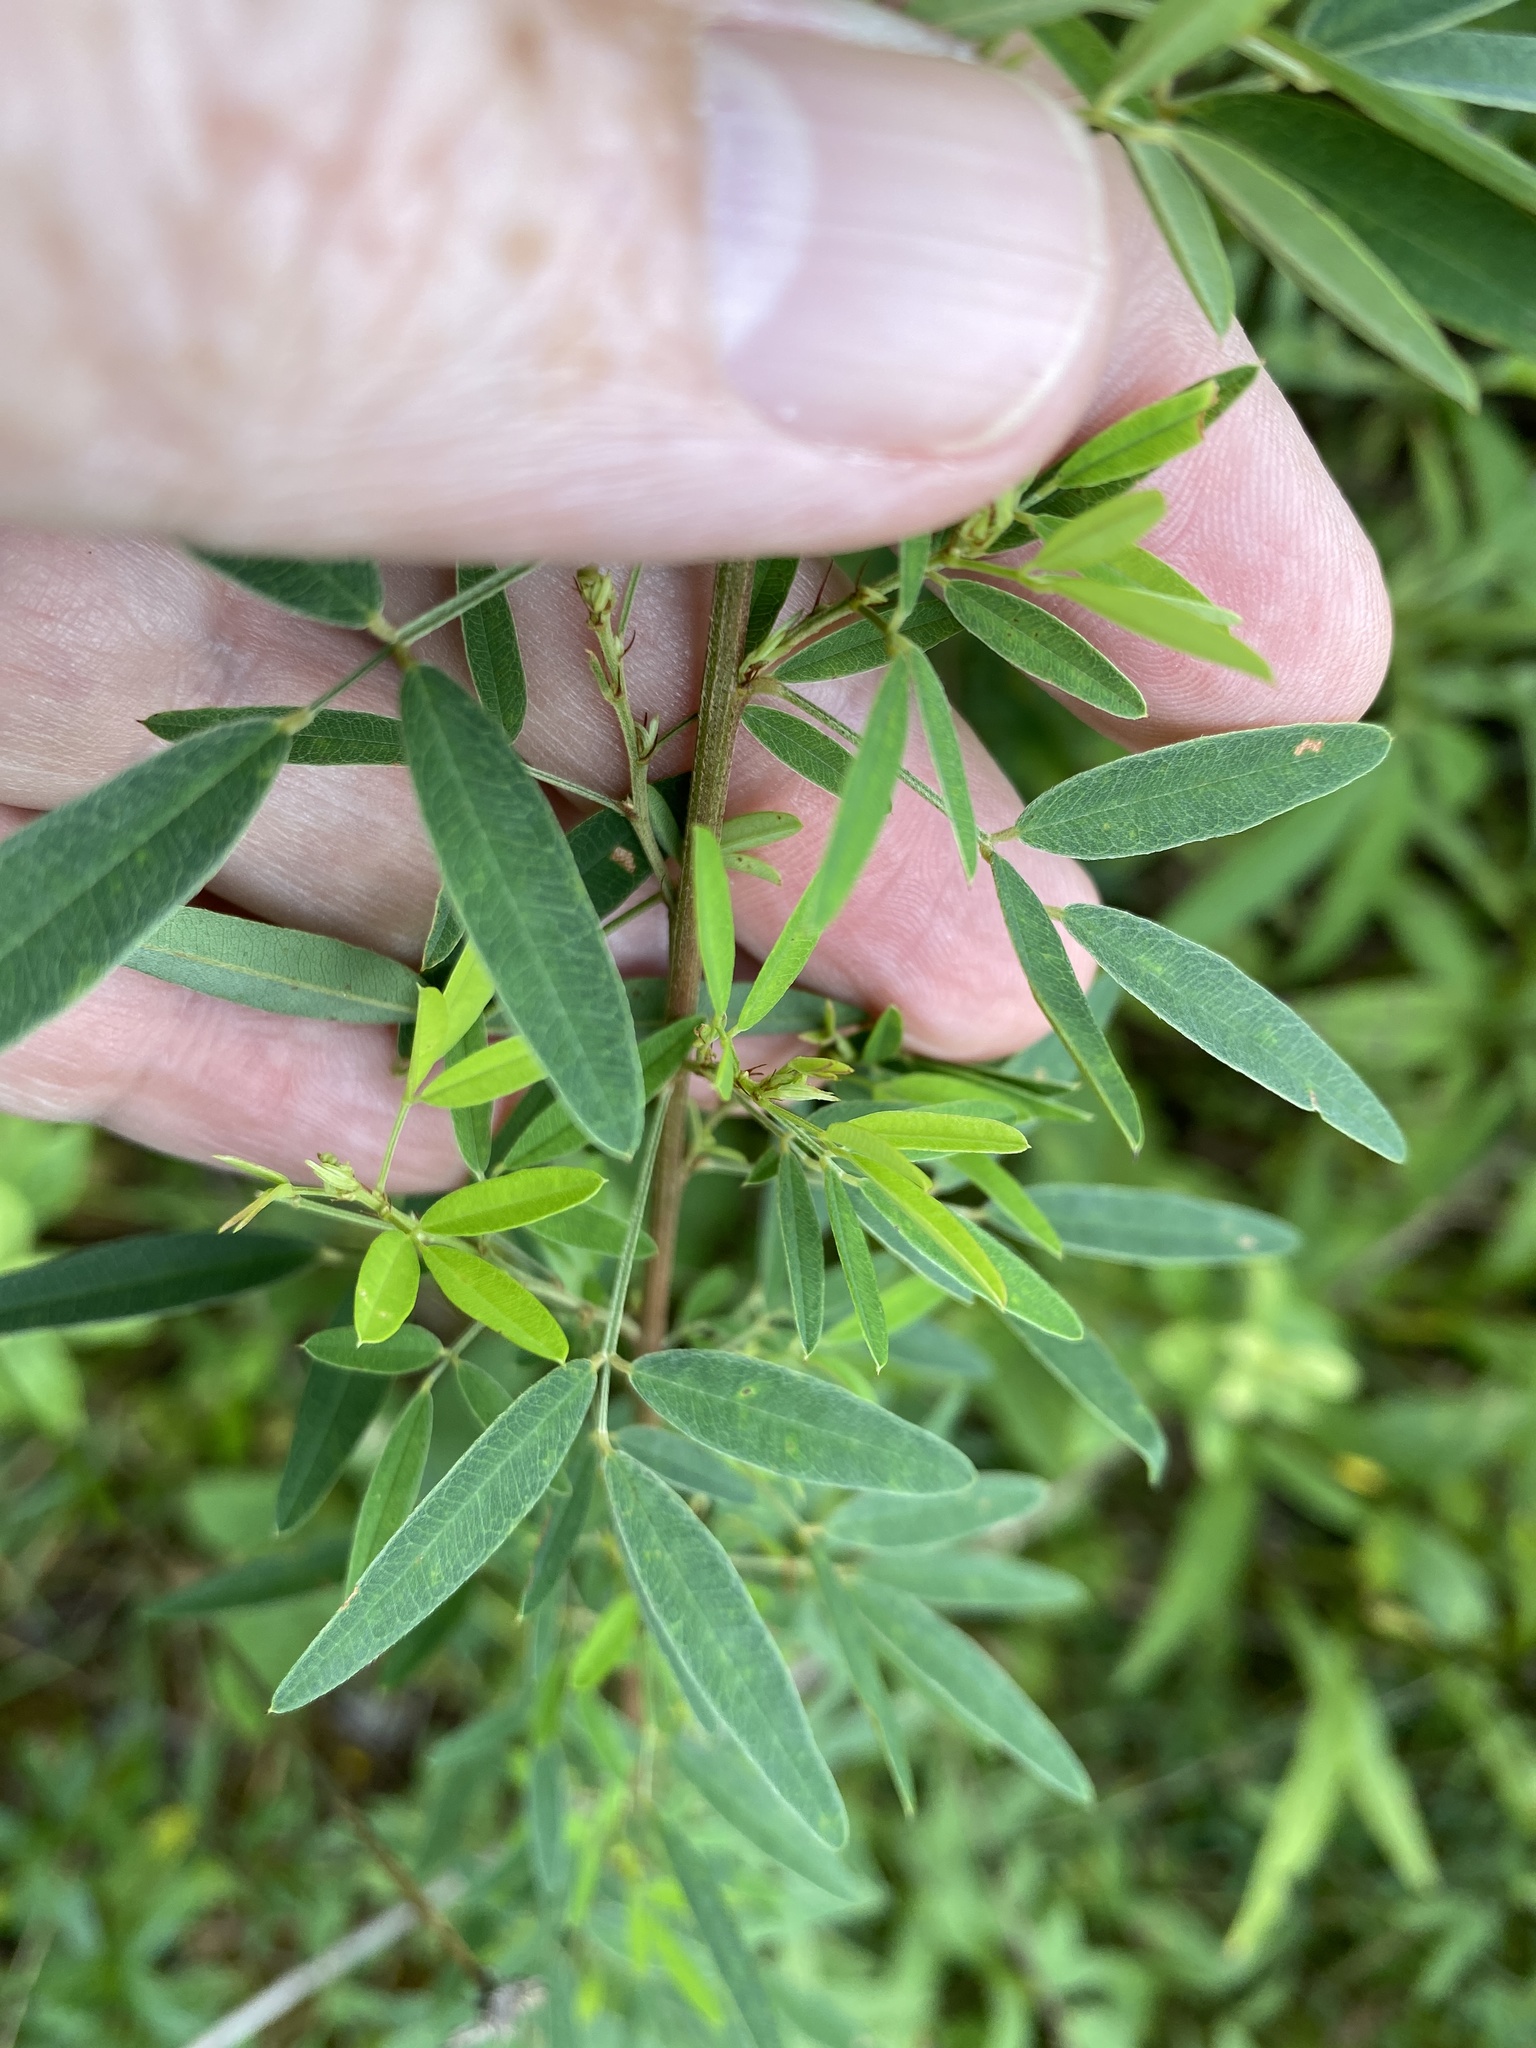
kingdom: Plantae
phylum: Tracheophyta
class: Magnoliopsida
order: Fabales
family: Fabaceae
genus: Lespedeza
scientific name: Lespedeza virginica
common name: Slender bush-clover
